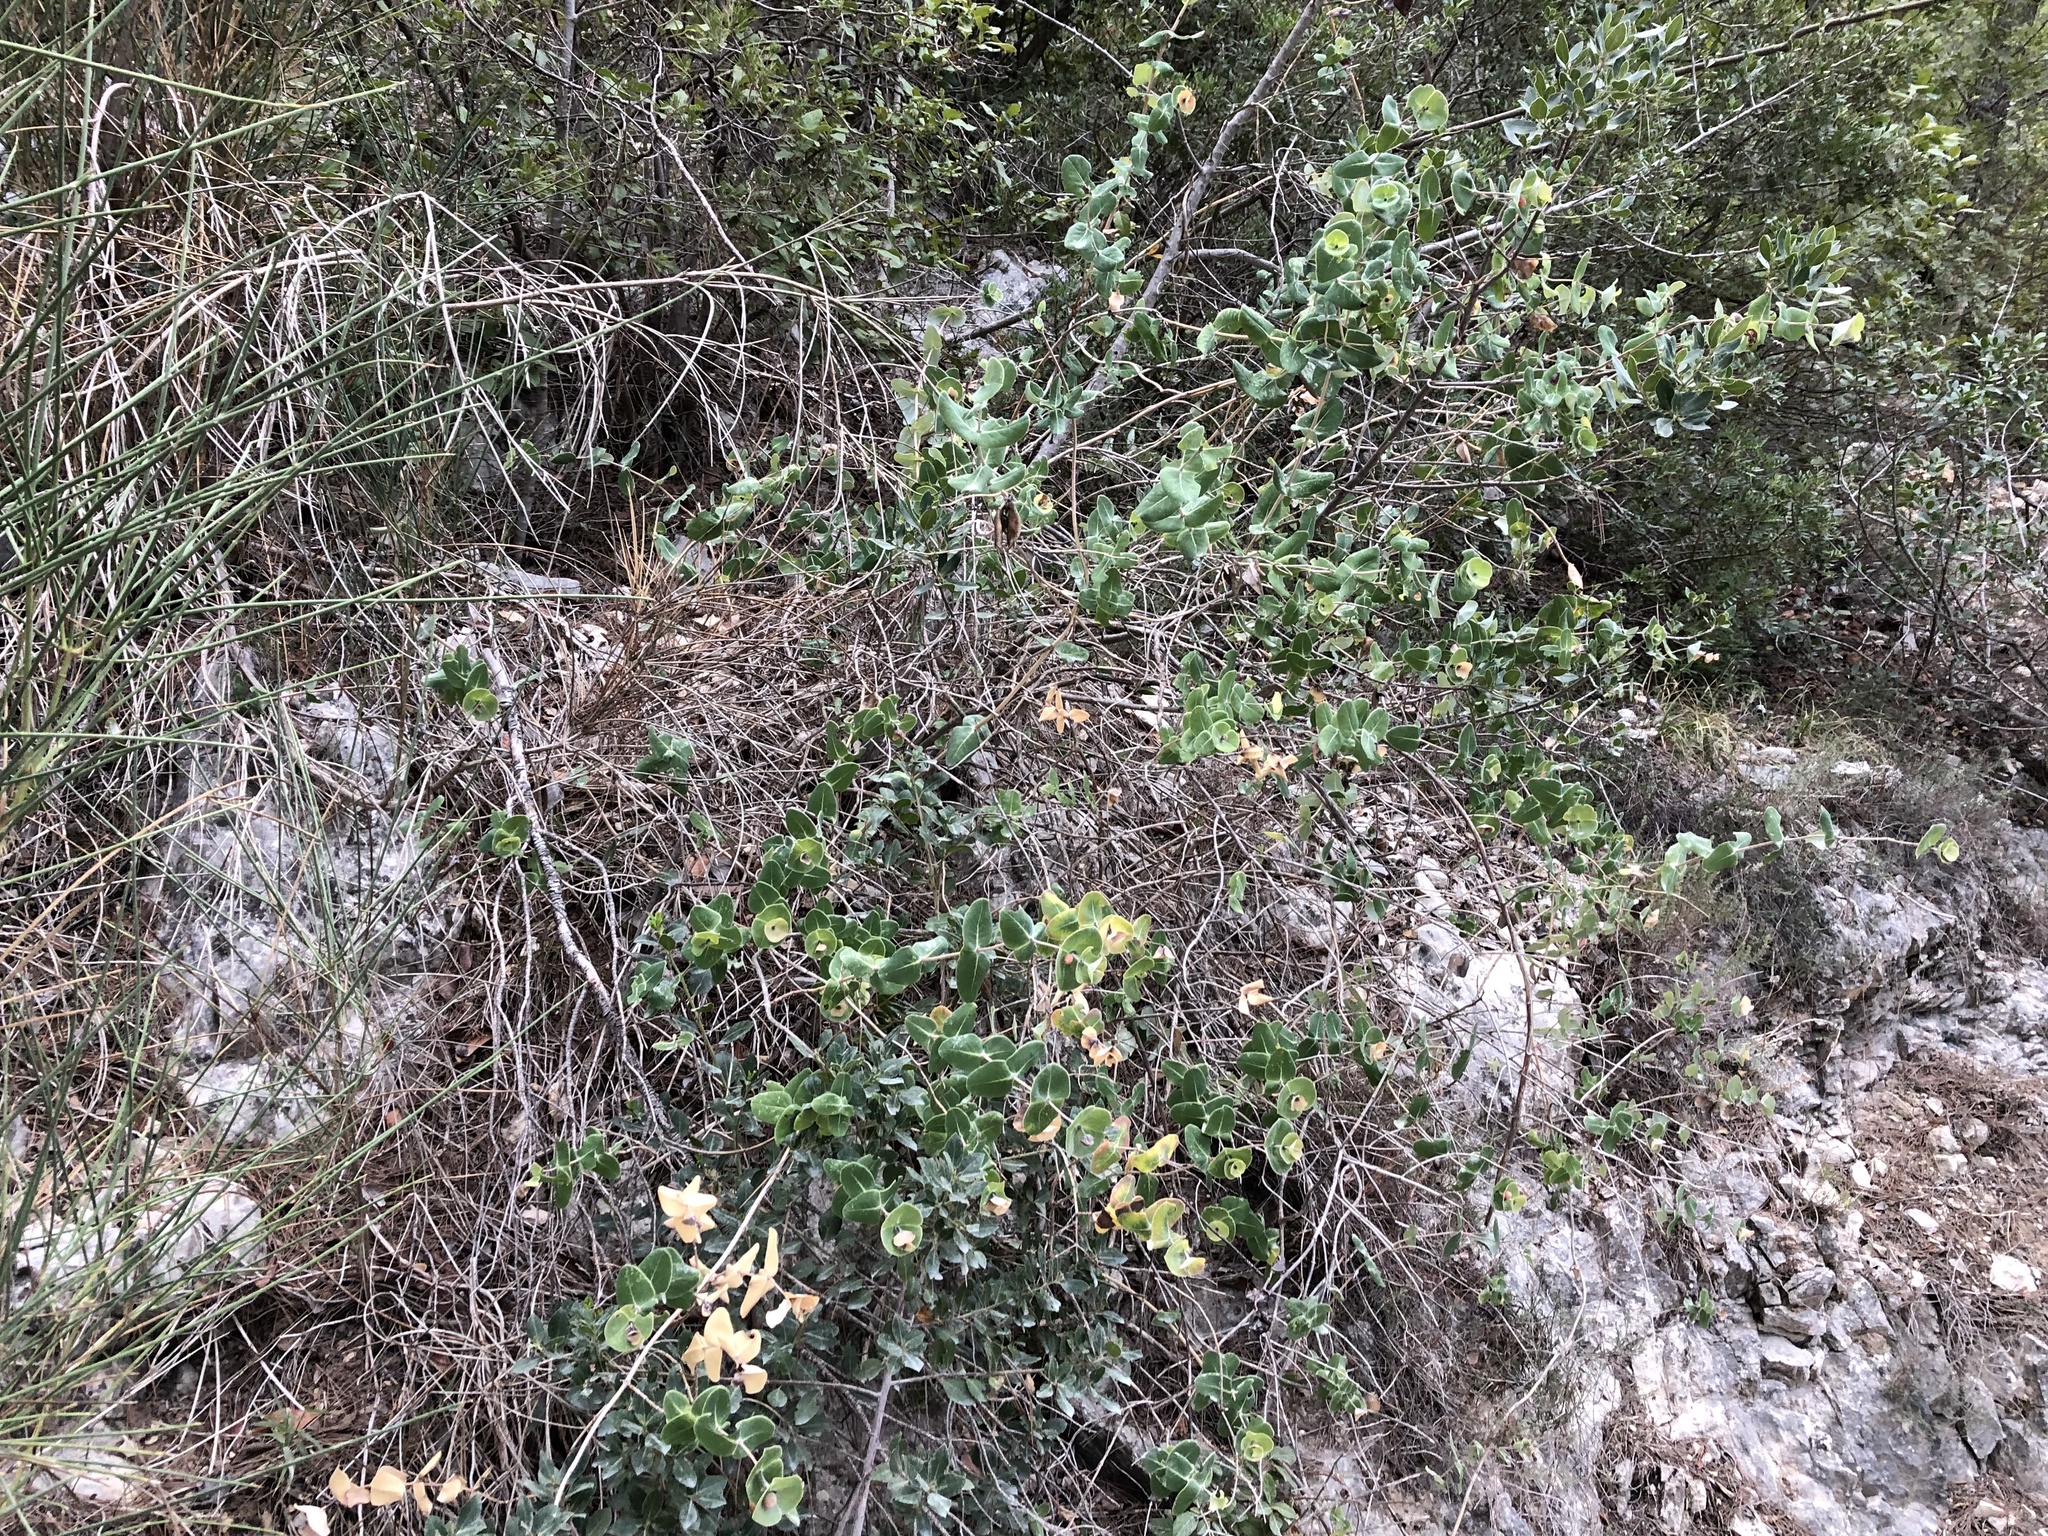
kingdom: Plantae
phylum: Tracheophyta
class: Magnoliopsida
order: Dipsacales
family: Caprifoliaceae
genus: Lonicera
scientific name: Lonicera implexa
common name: Minorca honeysuckle
